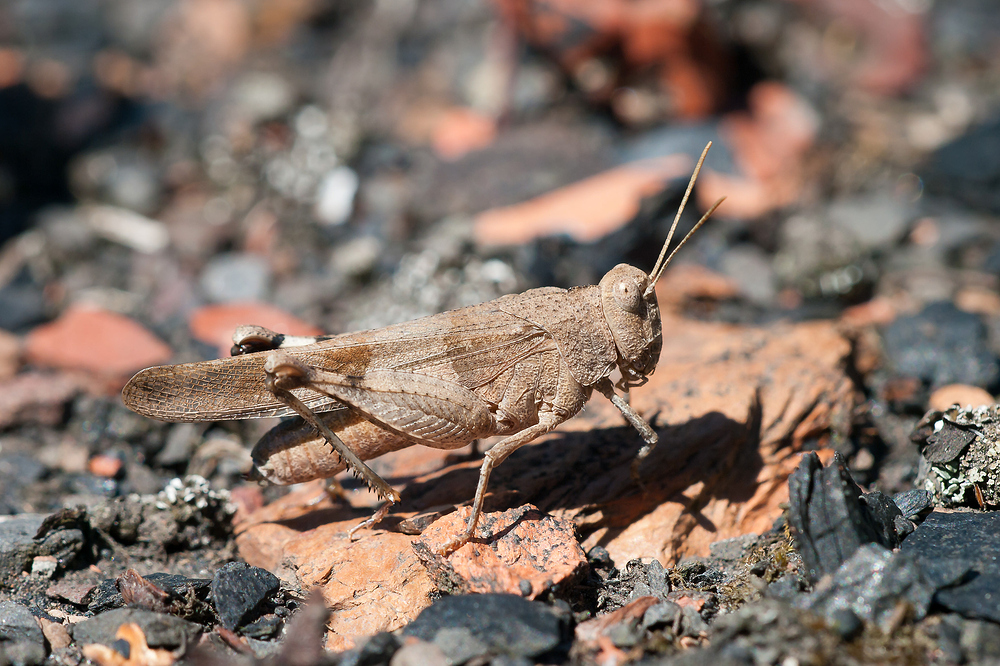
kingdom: Animalia
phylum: Arthropoda
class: Insecta
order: Orthoptera
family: Acrididae
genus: Oedipoda
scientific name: Oedipoda caerulescens
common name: Blue-winged grasshopper
